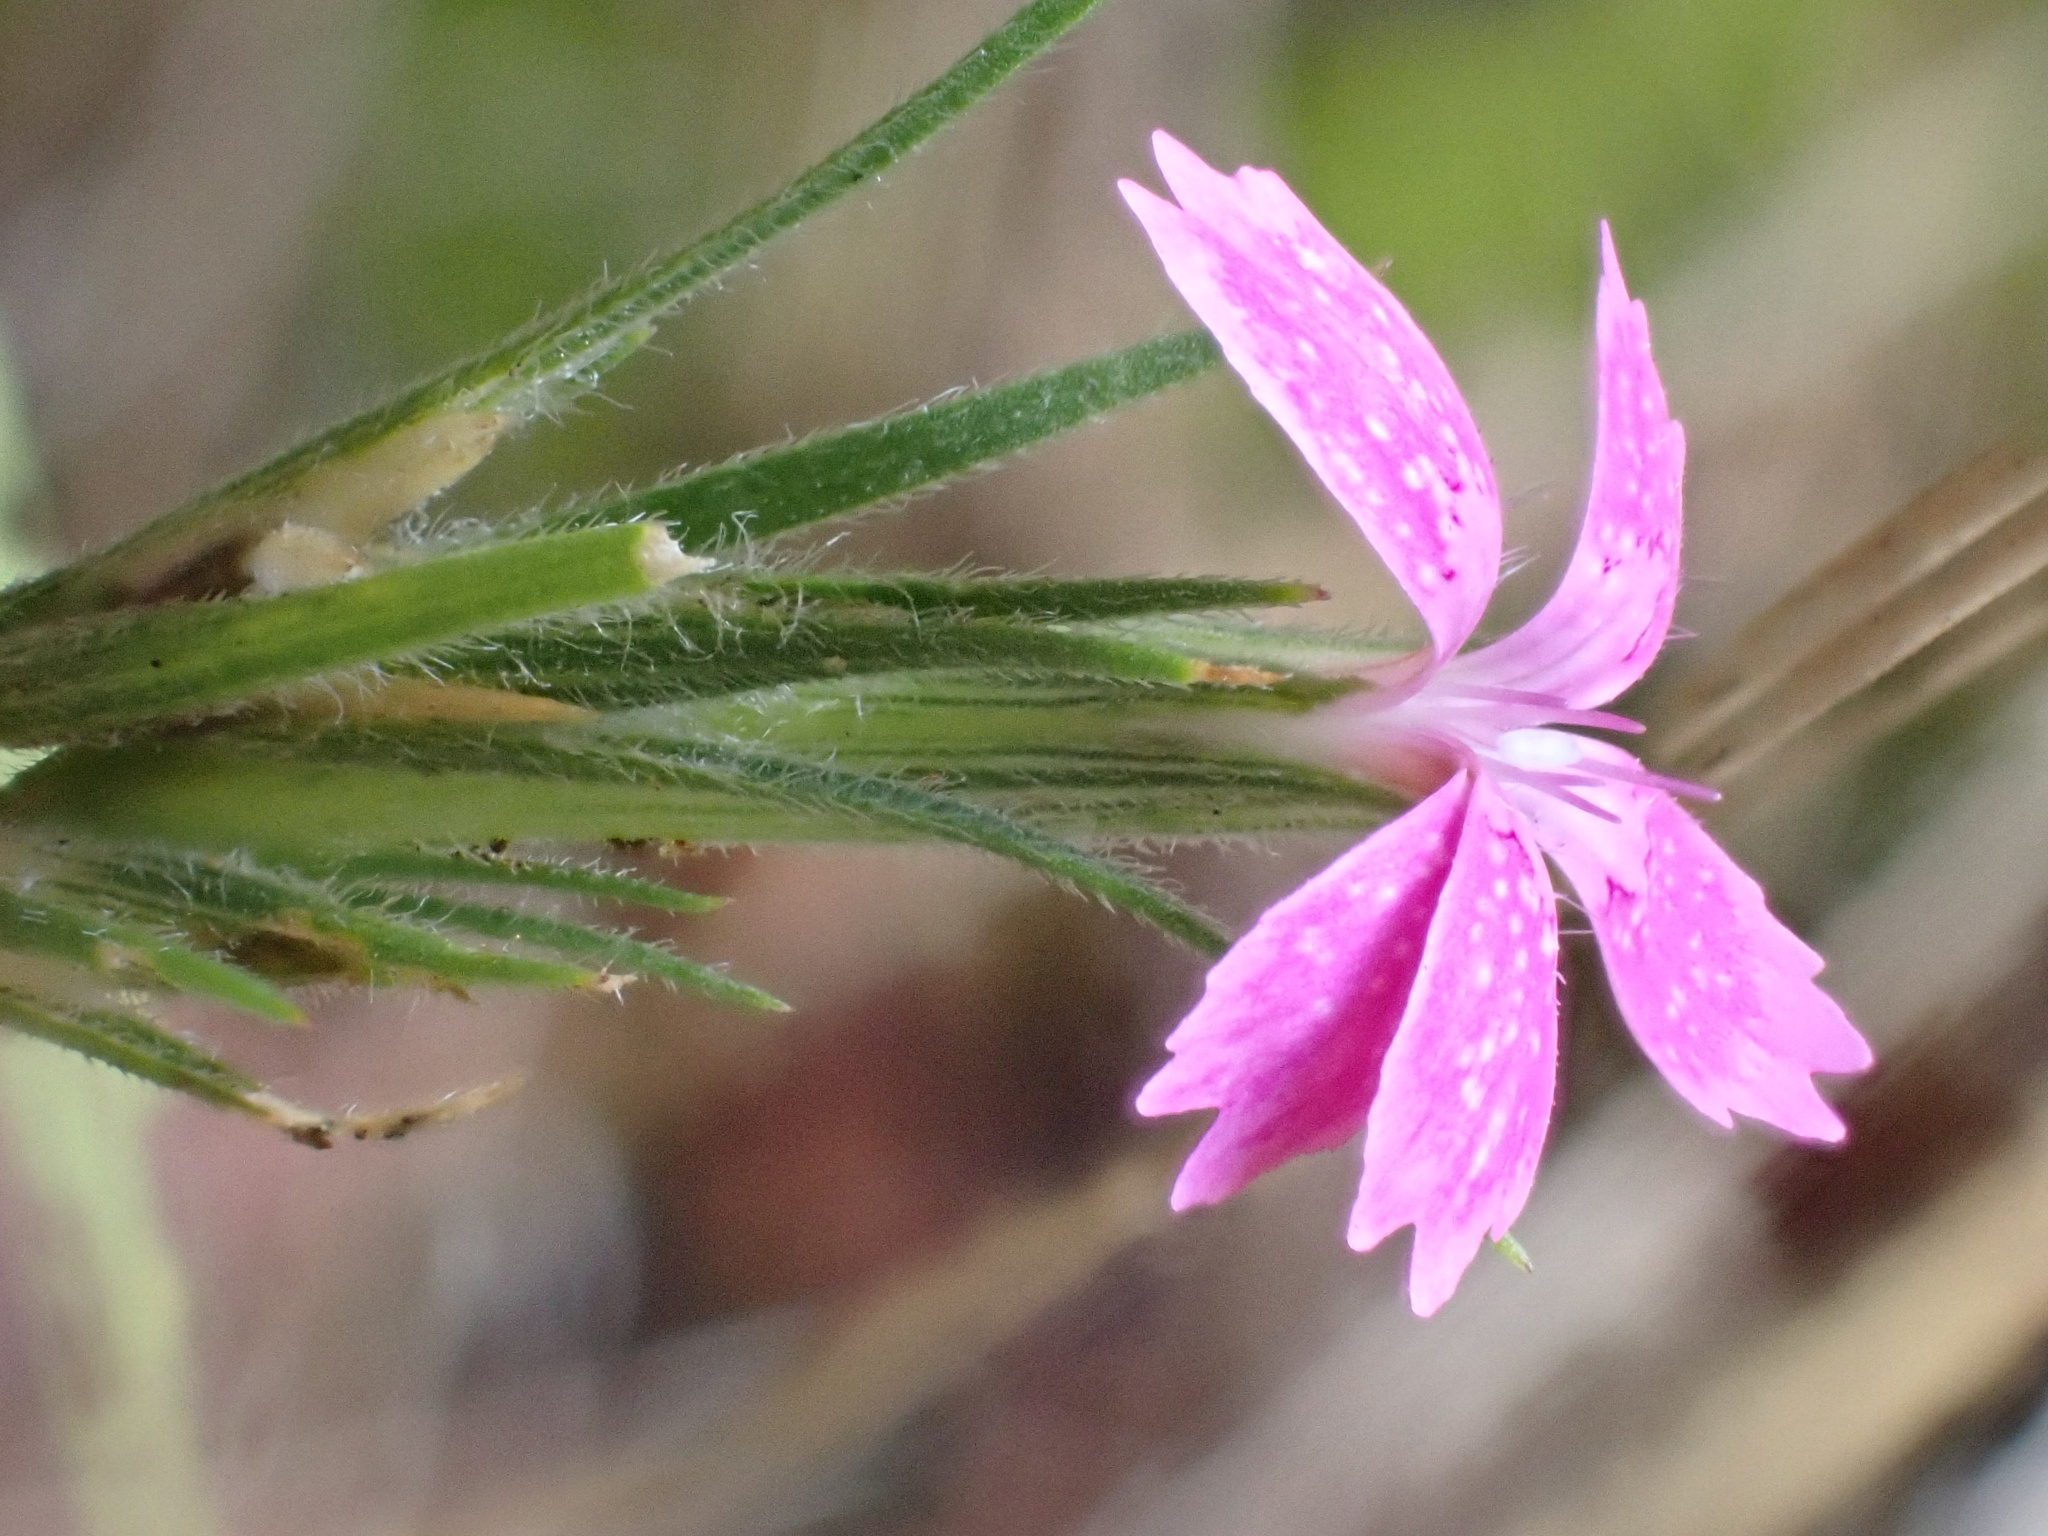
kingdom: Plantae
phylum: Tracheophyta
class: Magnoliopsida
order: Caryophyllales
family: Caryophyllaceae
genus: Dianthus
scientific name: Dianthus armeria
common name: Deptford pink
